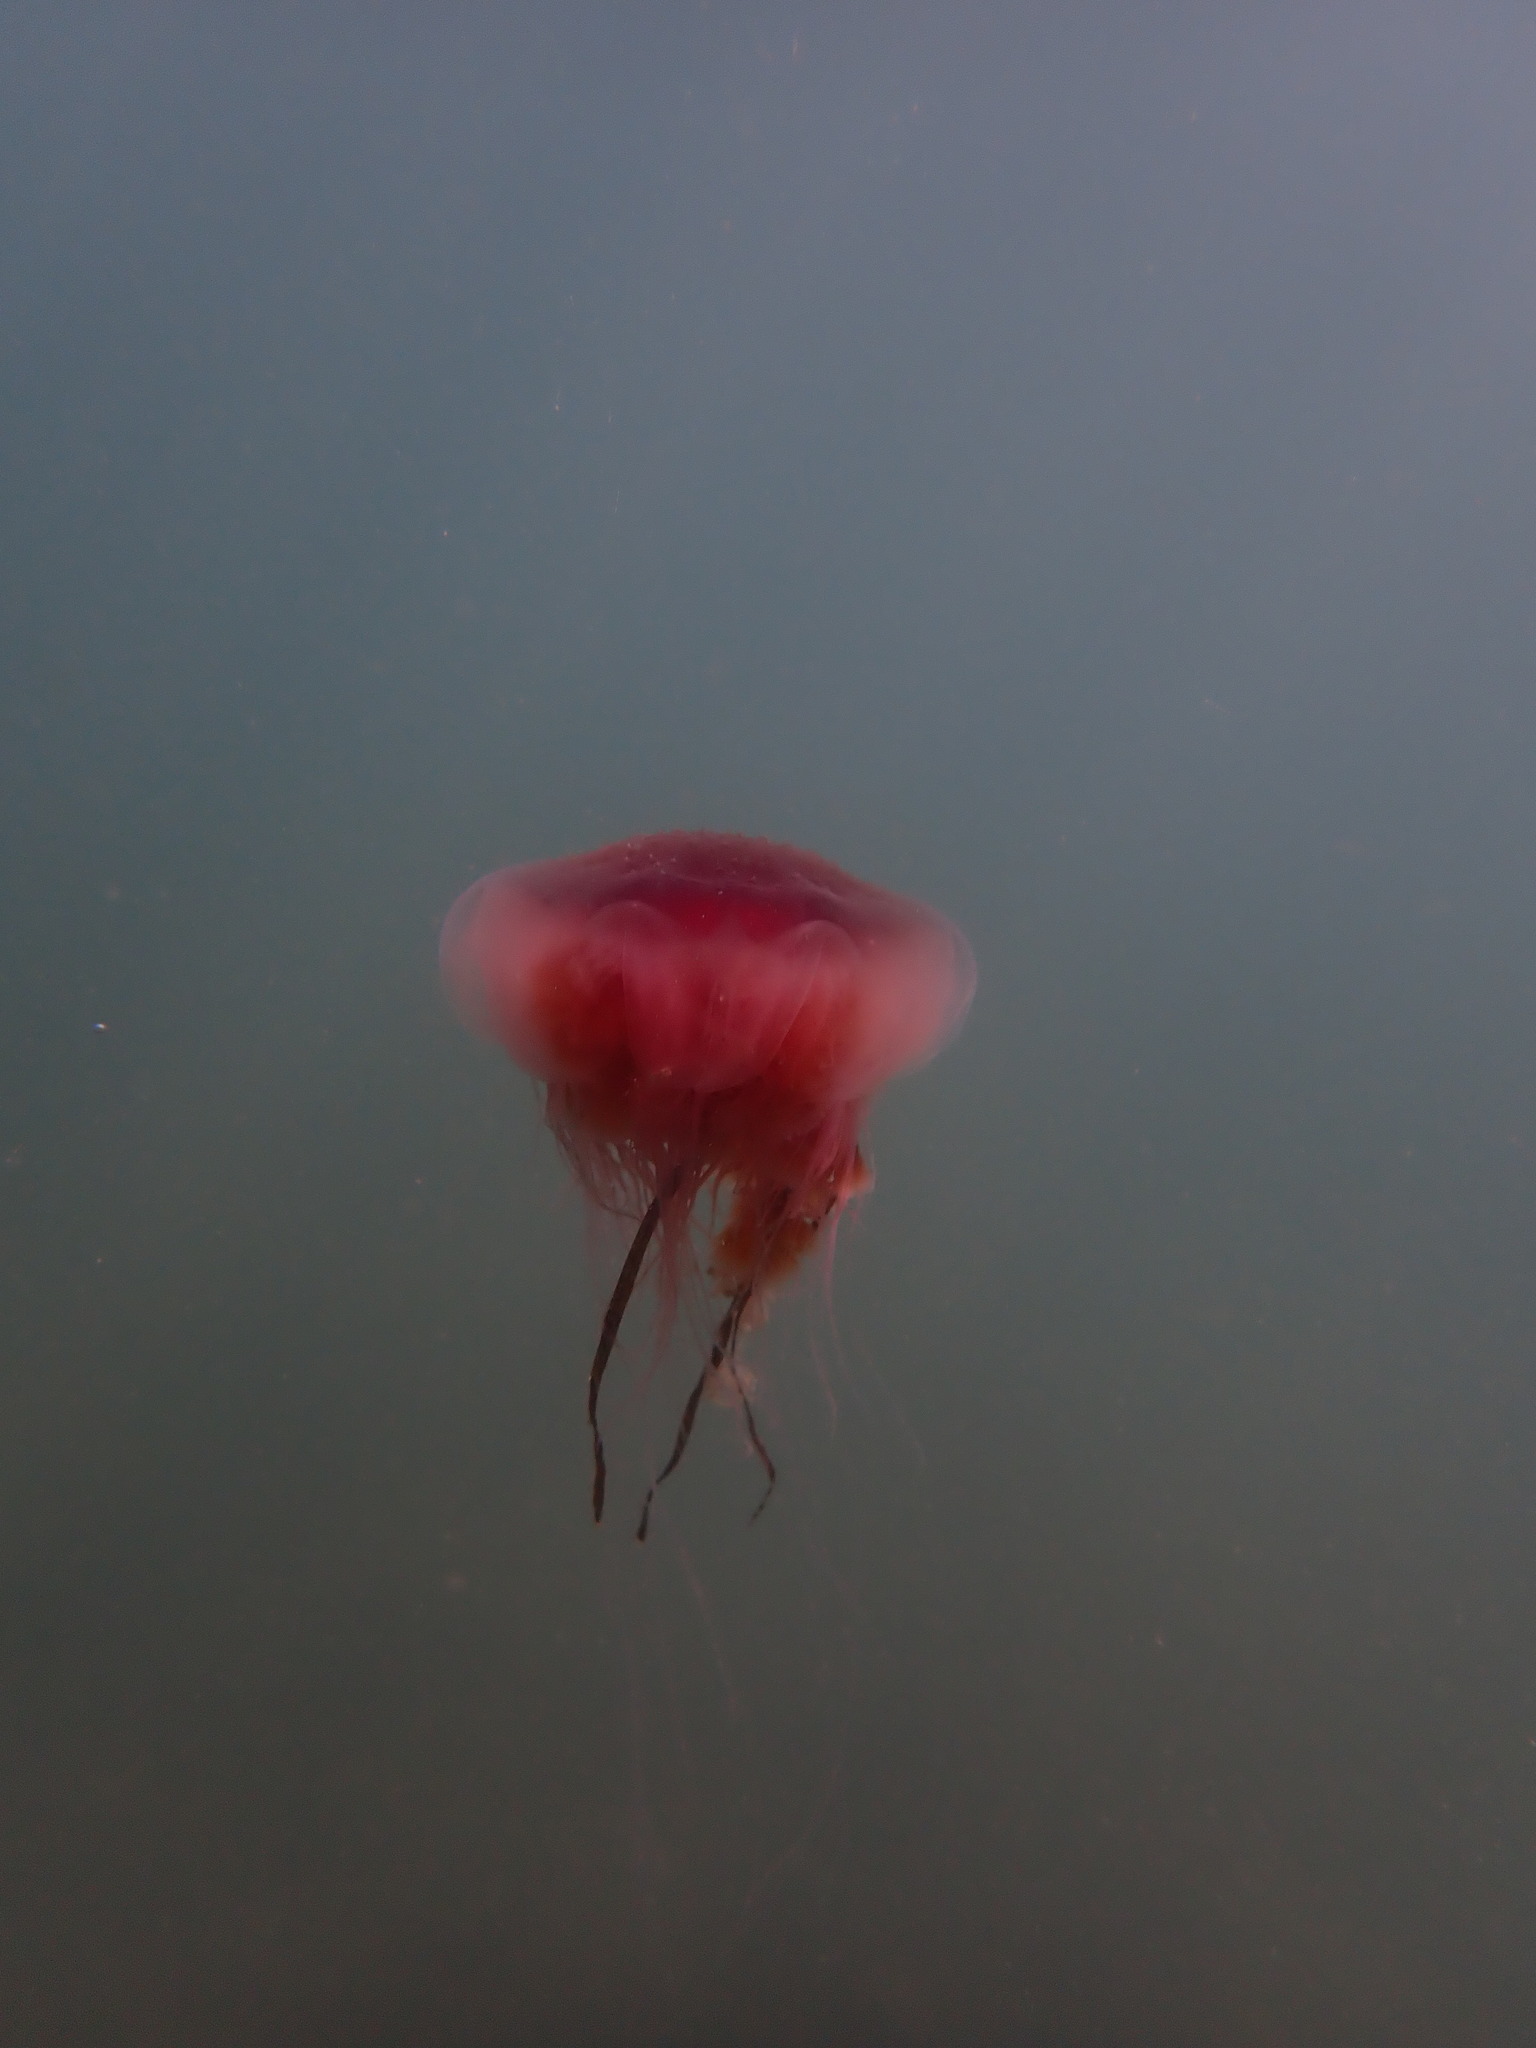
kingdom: Animalia
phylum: Cnidaria
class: Scyphozoa
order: Semaeostomeae
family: Cyaneidae
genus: Cyanea
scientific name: Cyanea annaskala
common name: Lion’s mane
